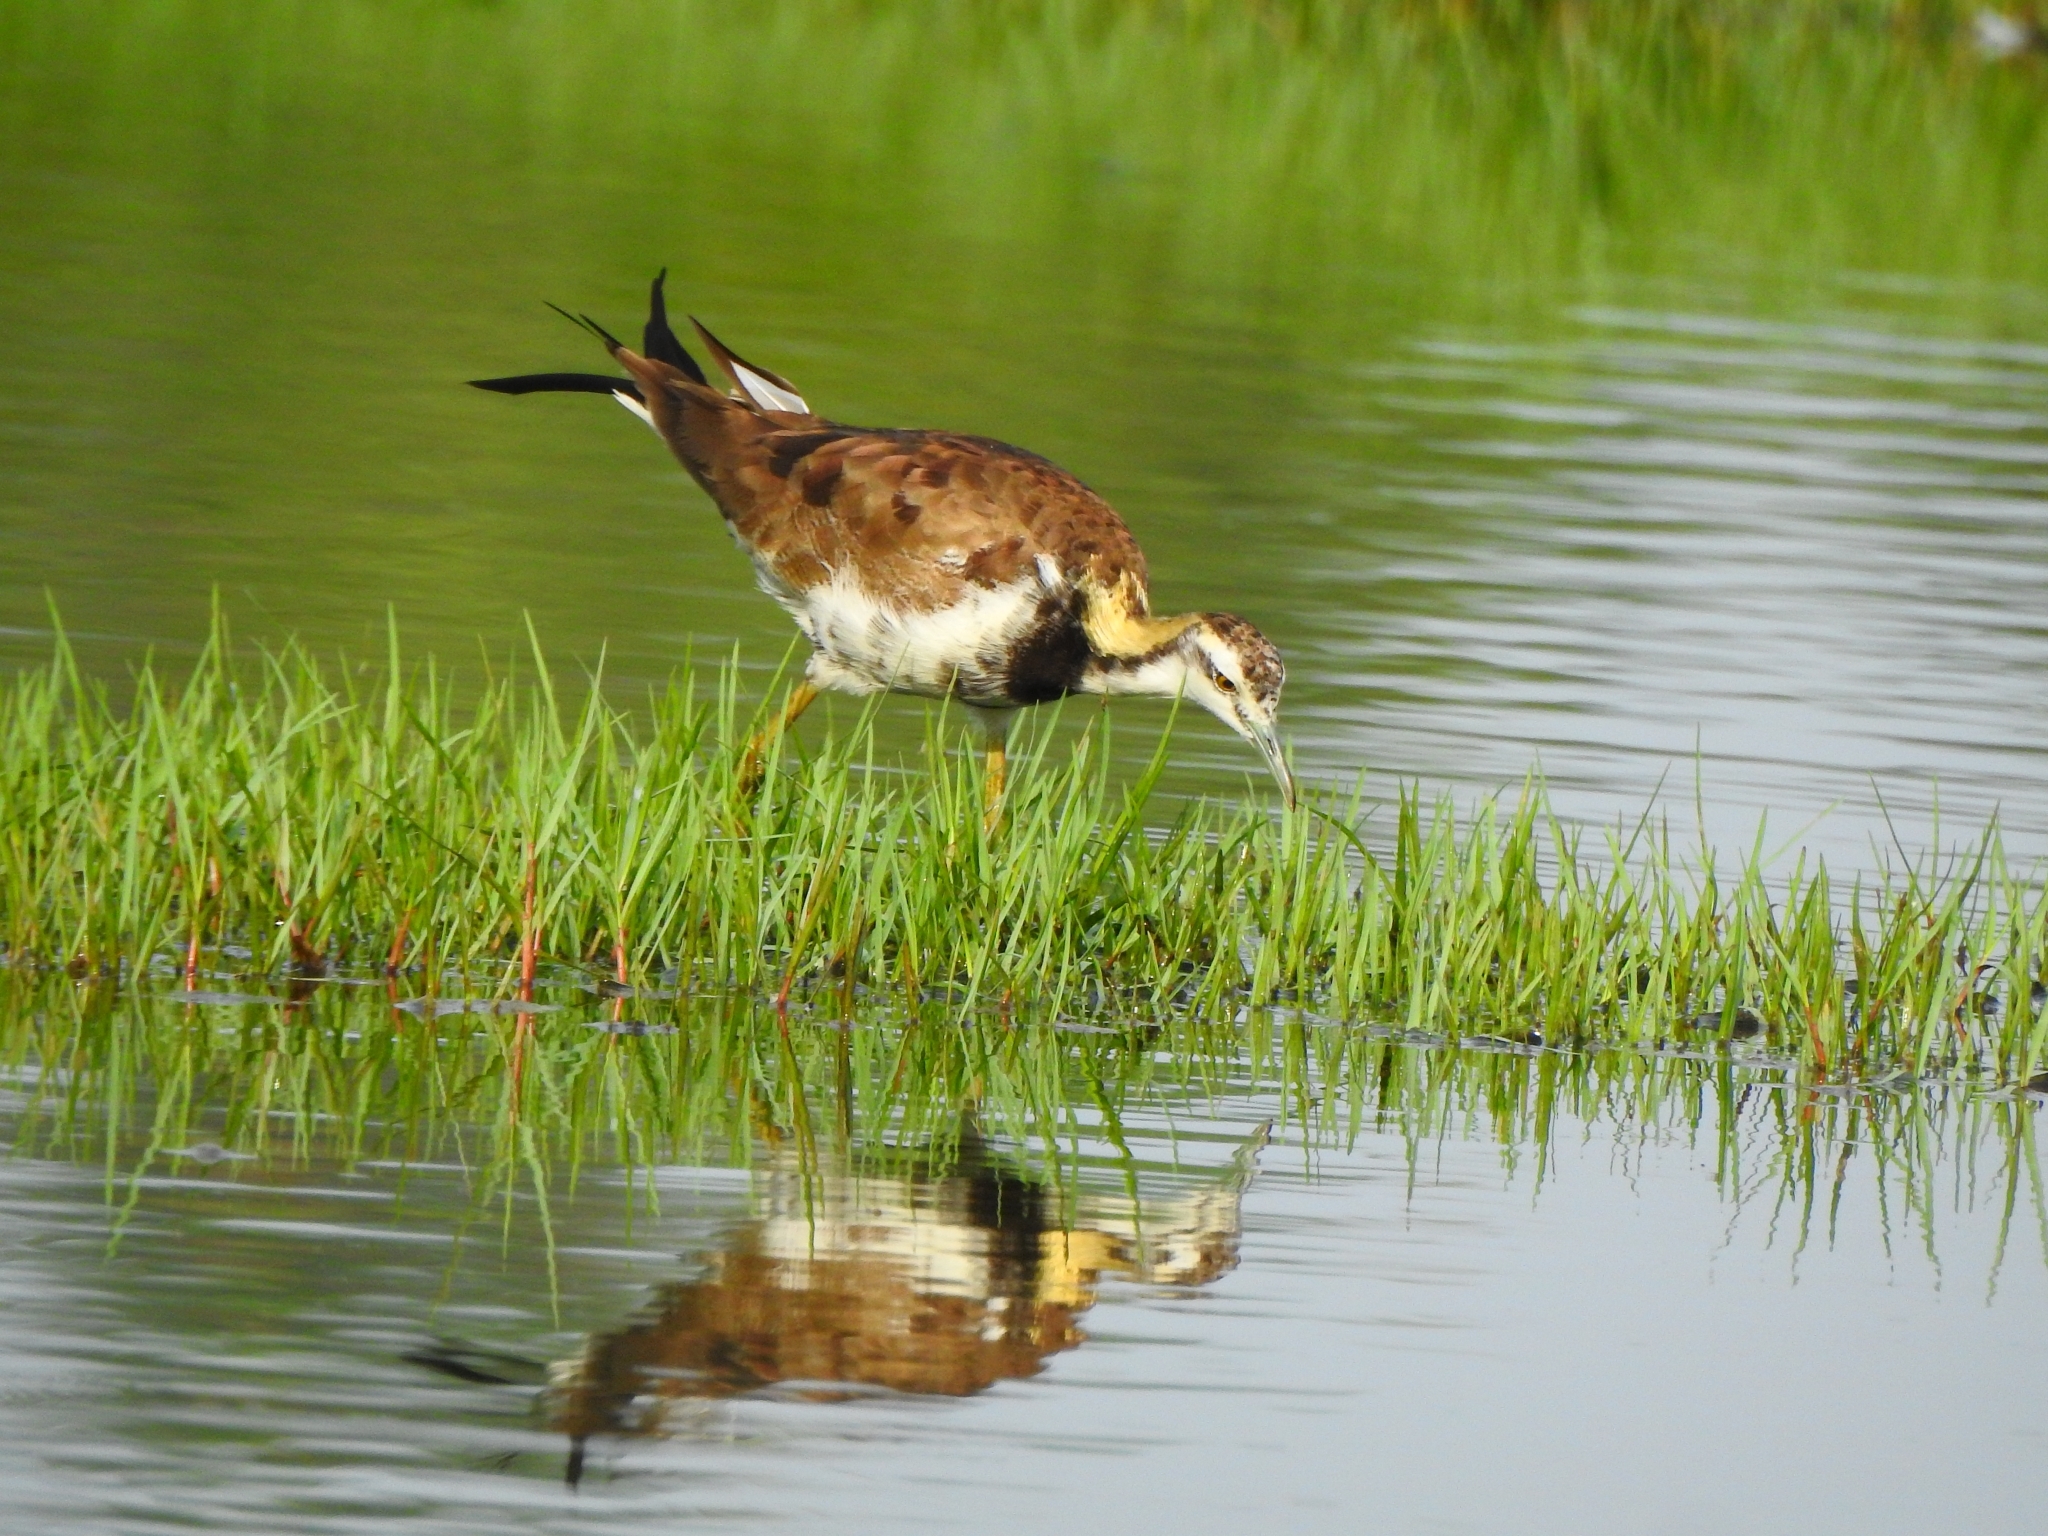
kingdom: Animalia
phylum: Chordata
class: Aves
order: Charadriiformes
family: Jacanidae
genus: Hydrophasianus
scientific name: Hydrophasianus chirurgus
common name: Pheasant-tailed jacana
